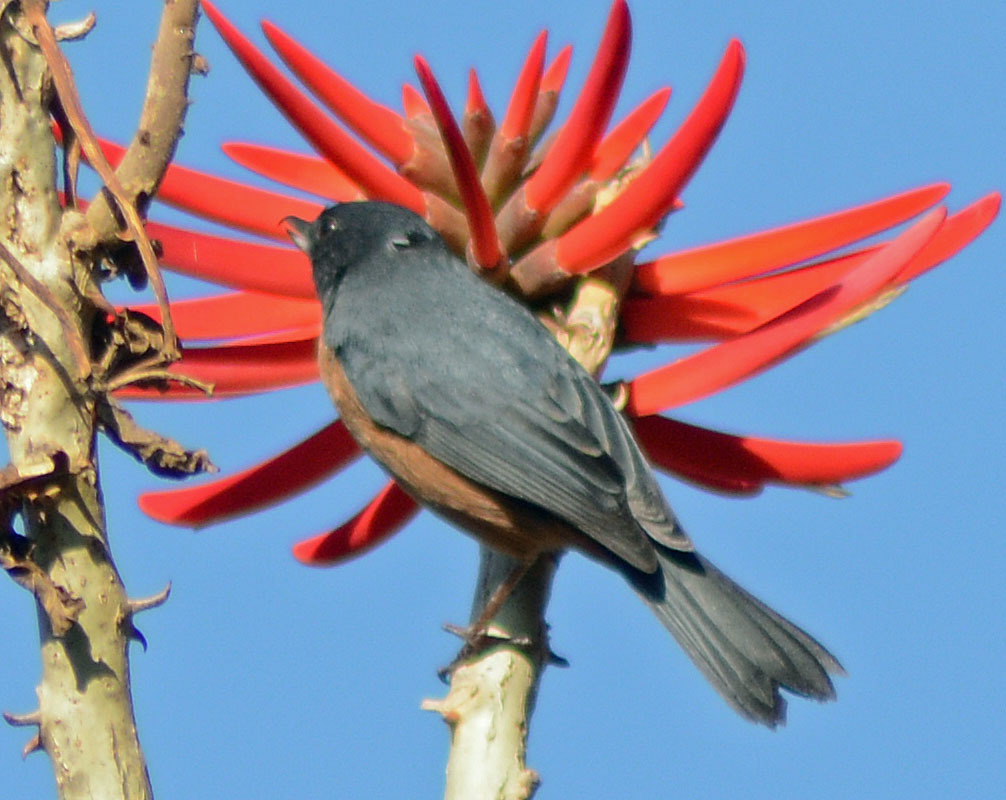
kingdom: Animalia
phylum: Chordata
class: Aves
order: Passeriformes
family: Thraupidae
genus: Diglossa
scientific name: Diglossa baritula
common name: Cinnamon-bellied flowerpiercer
